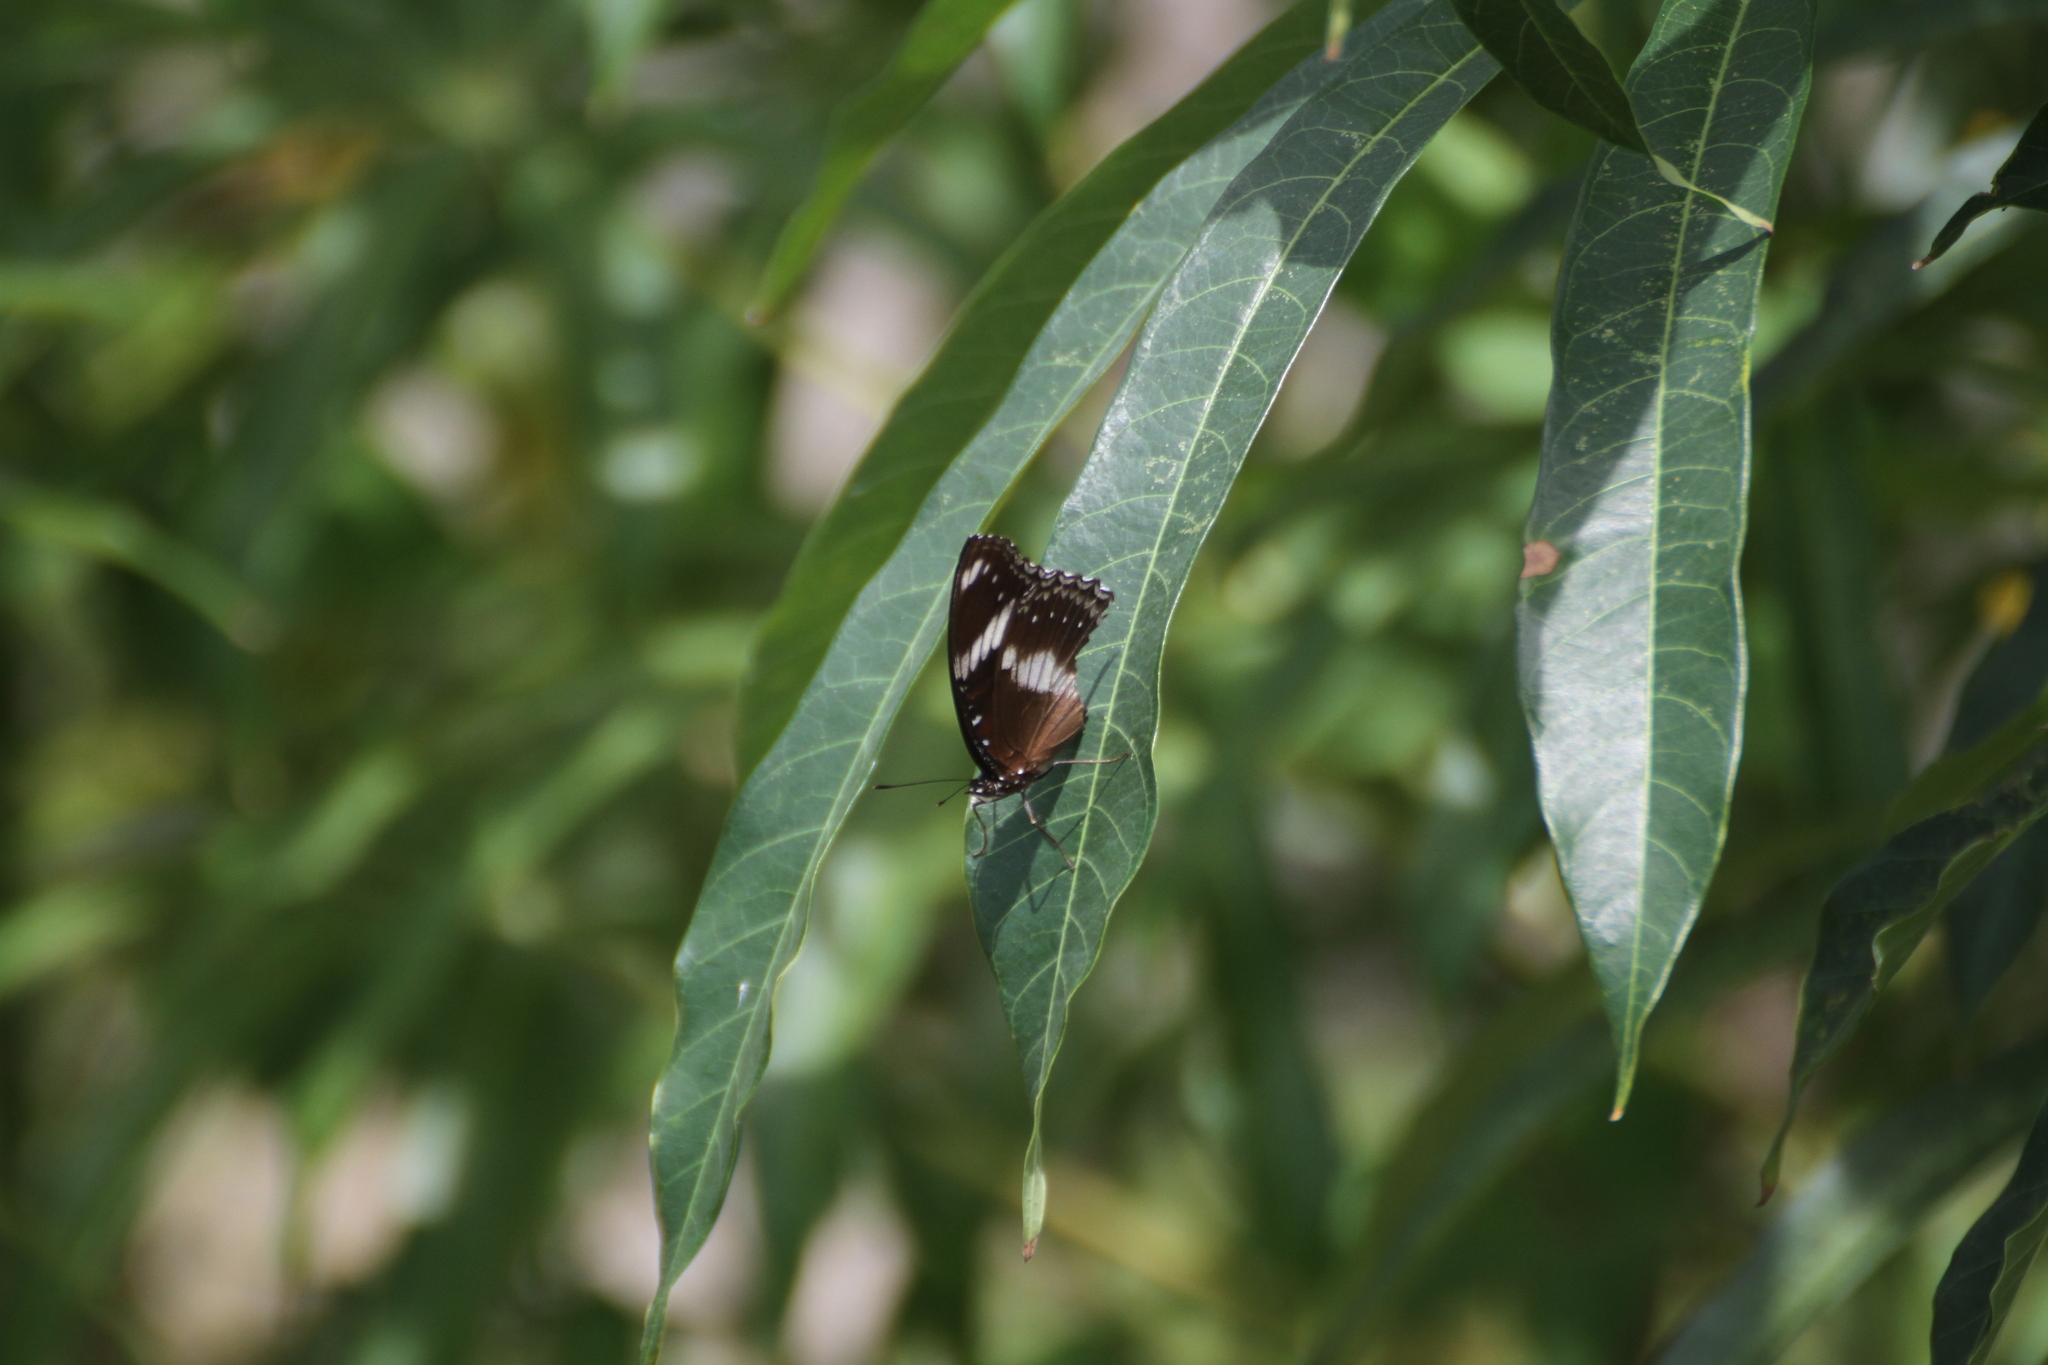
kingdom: Animalia
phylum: Arthropoda
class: Insecta
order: Lepidoptera
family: Nymphalidae
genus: Hypolimnas
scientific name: Hypolimnas bolina
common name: Great eggfly
